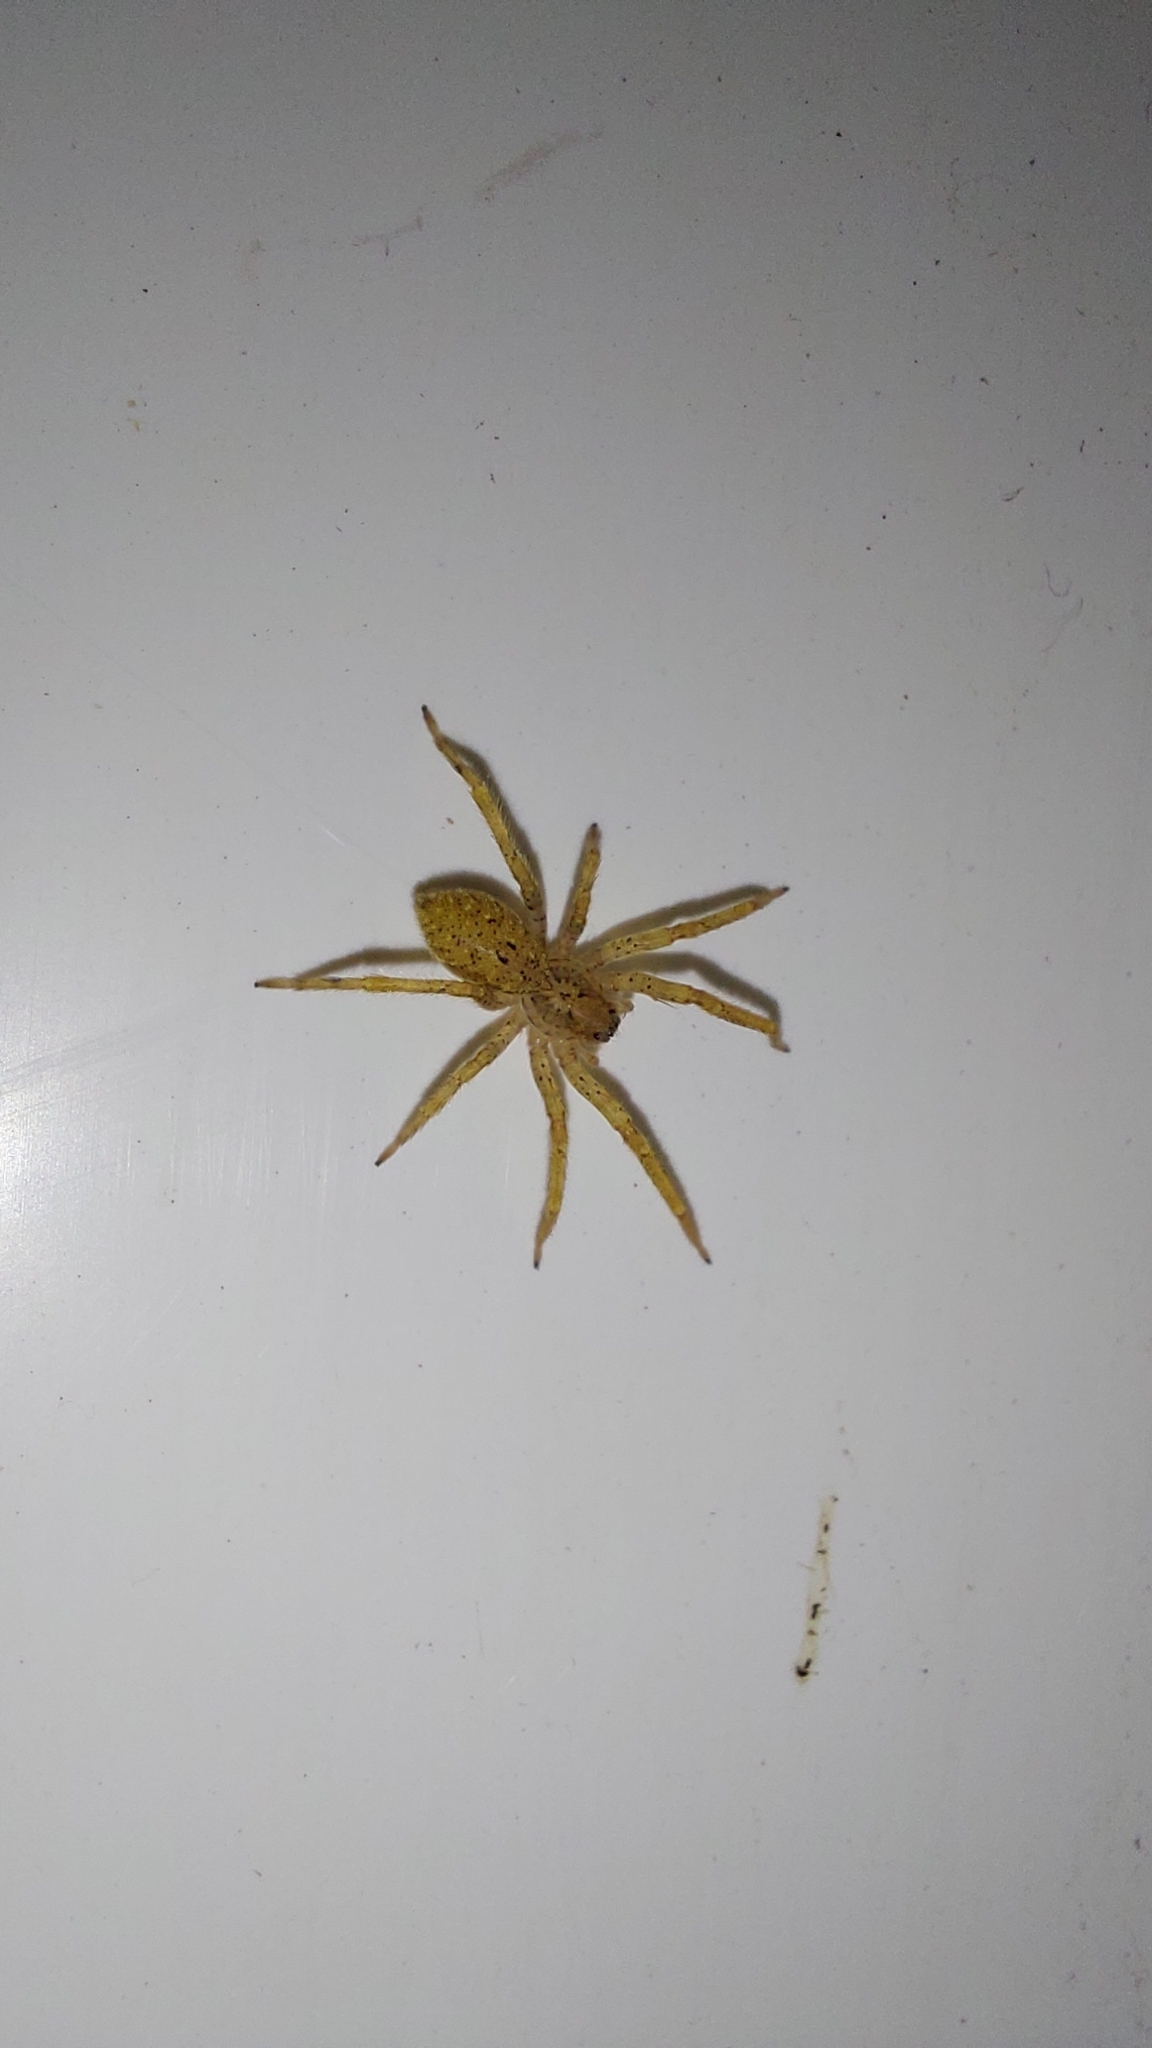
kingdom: Animalia
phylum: Arthropoda
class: Arachnida
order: Araneae
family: Zoropsidae
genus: Zoropsis
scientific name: Zoropsis spinimana
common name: Zoropsid spider
